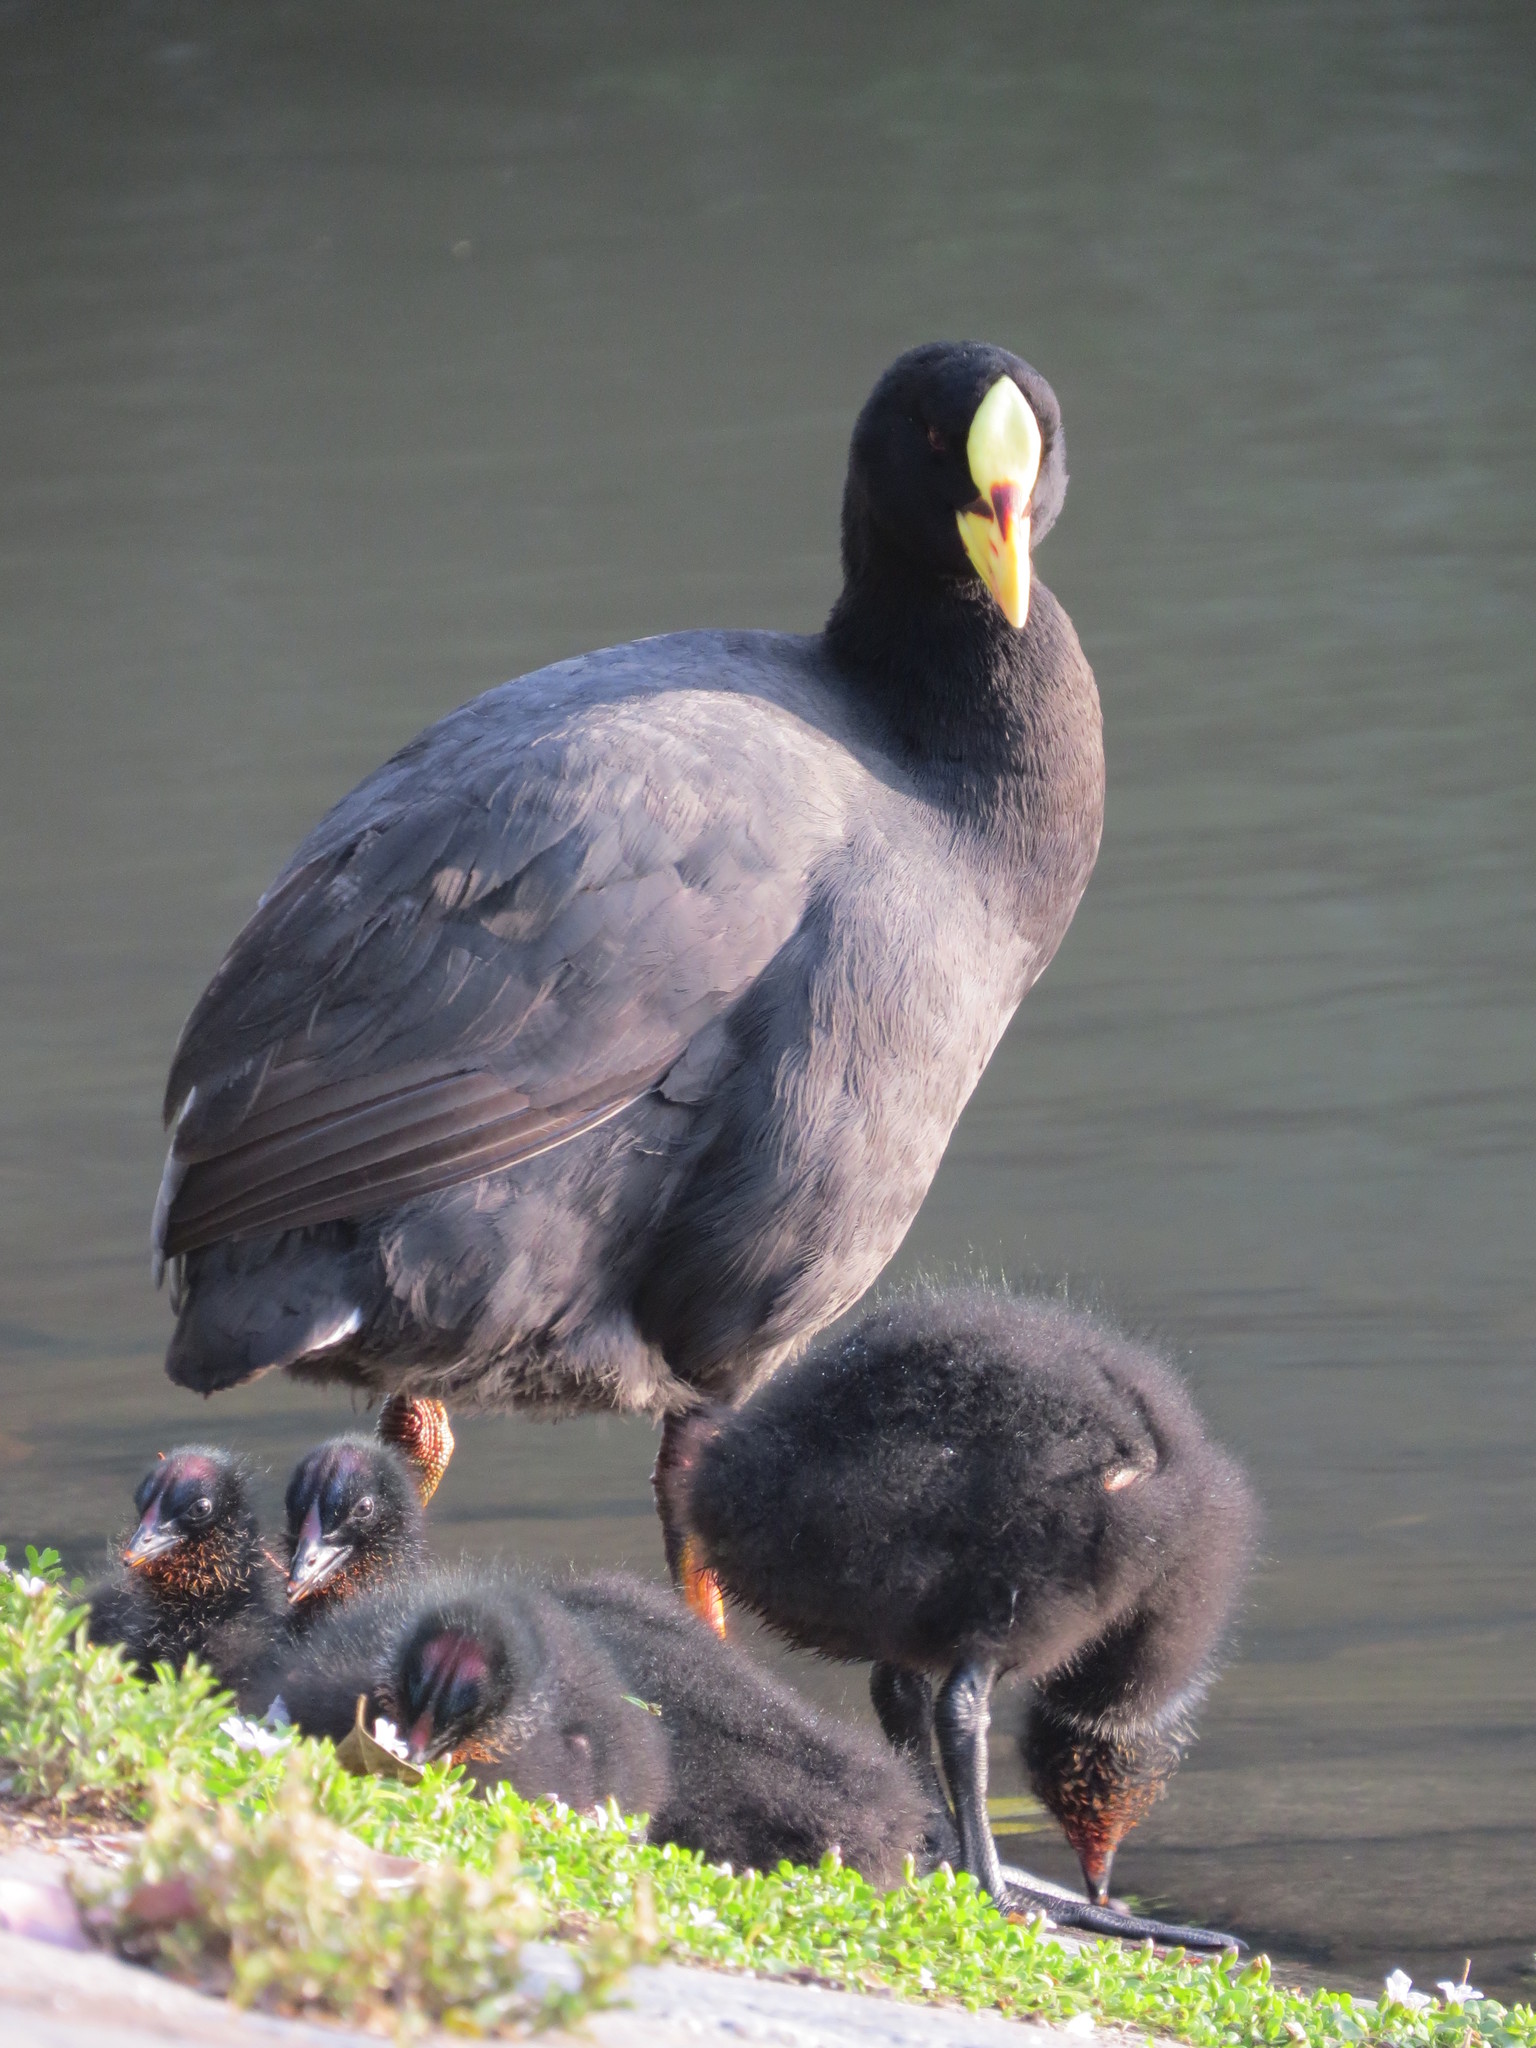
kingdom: Animalia
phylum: Chordata
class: Aves
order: Gruiformes
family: Rallidae
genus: Fulica
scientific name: Fulica armillata
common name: Red-gartered coot
